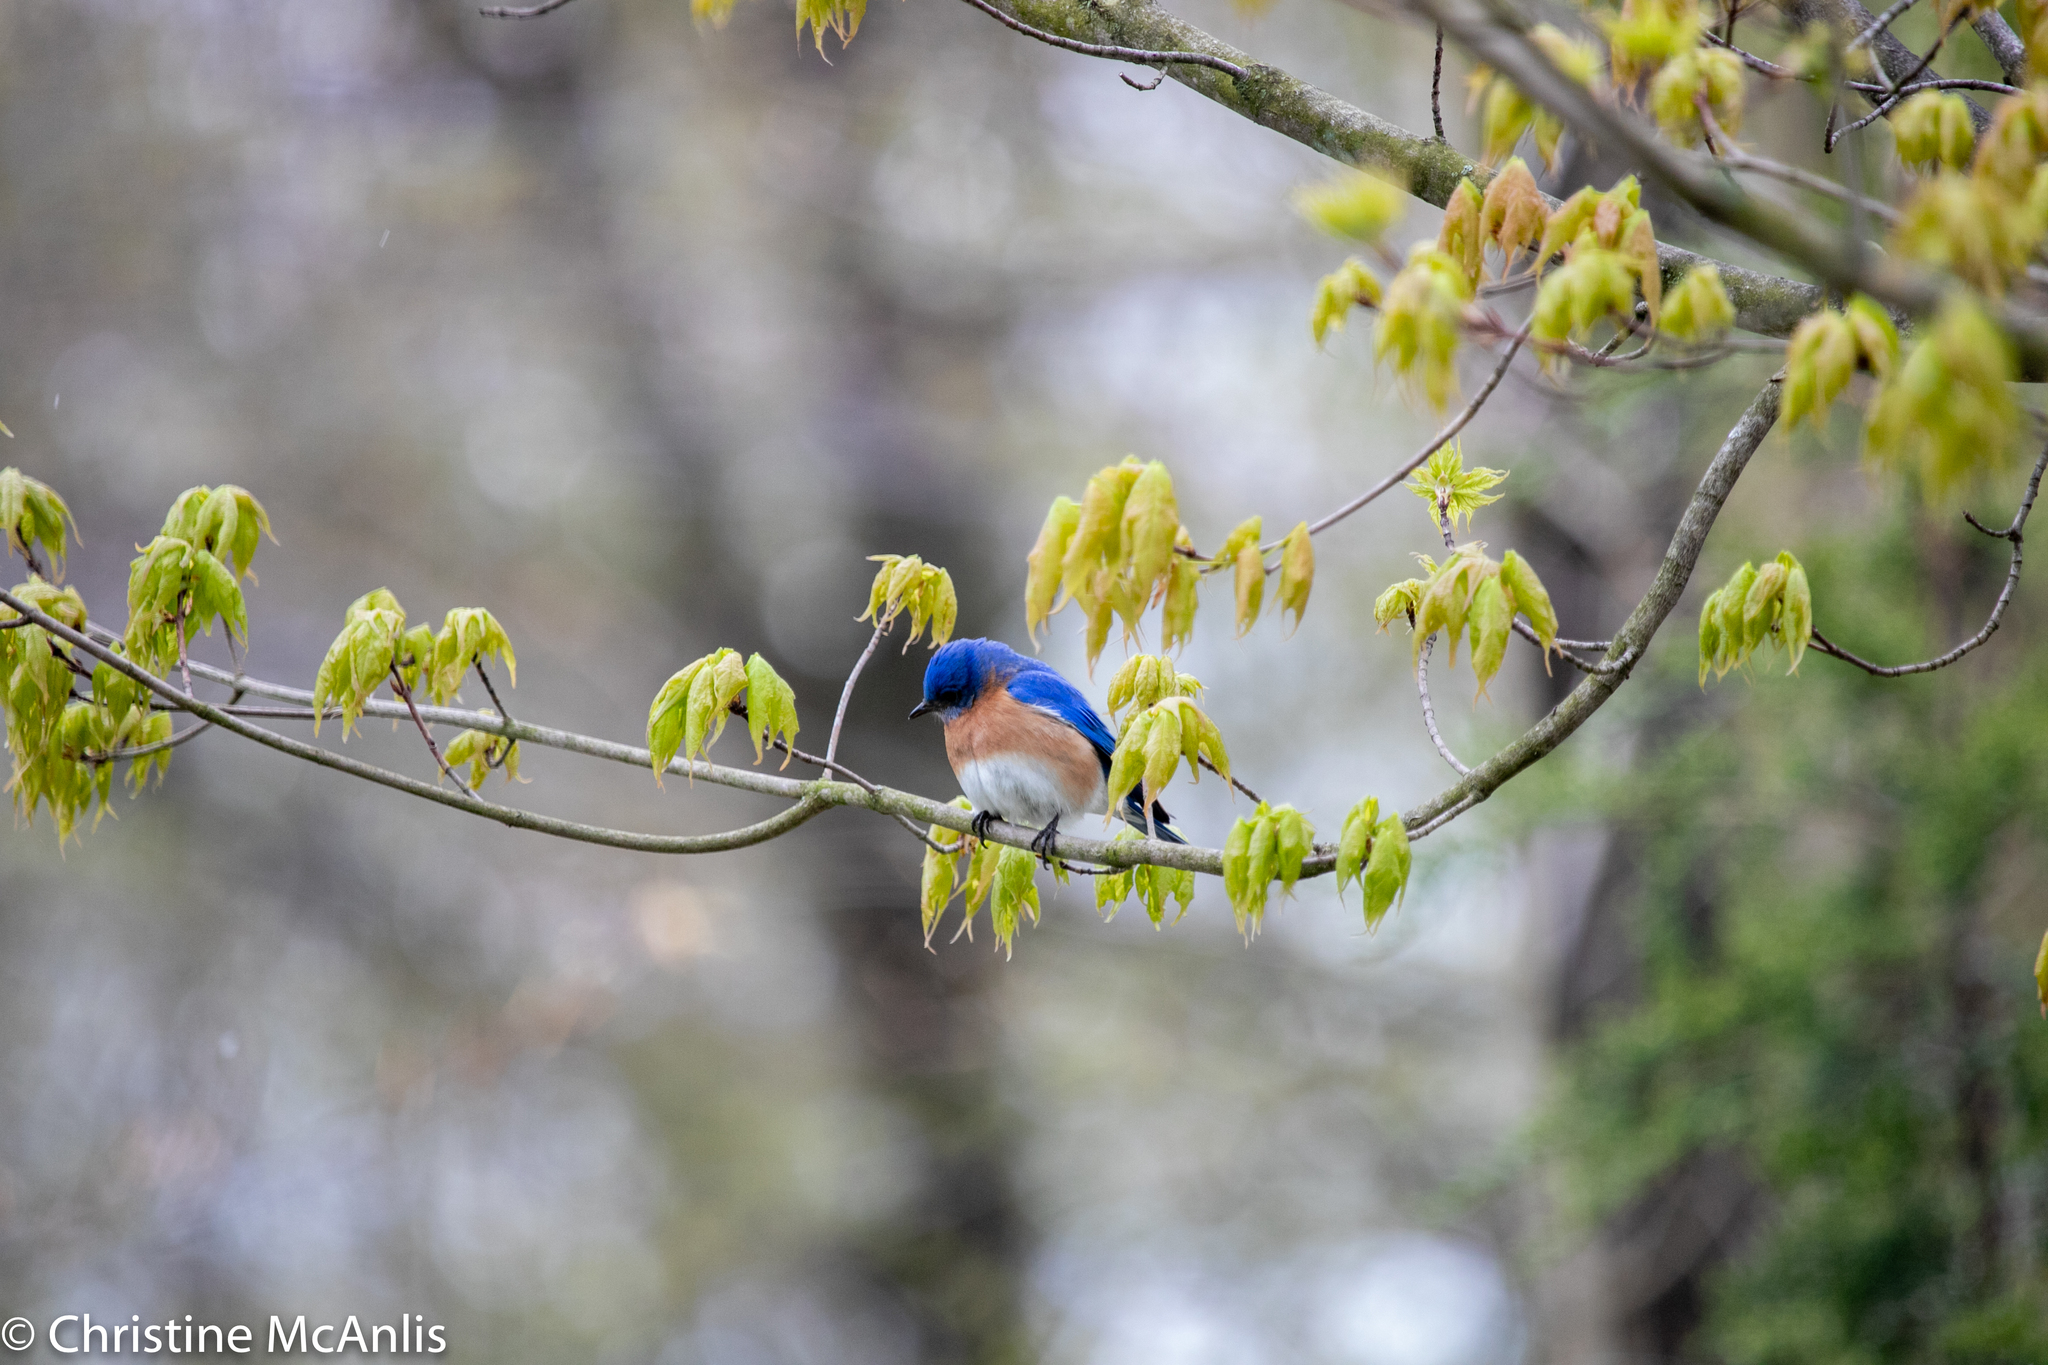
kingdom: Animalia
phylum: Chordata
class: Aves
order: Passeriformes
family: Turdidae
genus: Sialia
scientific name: Sialia sialis
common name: Eastern bluebird
